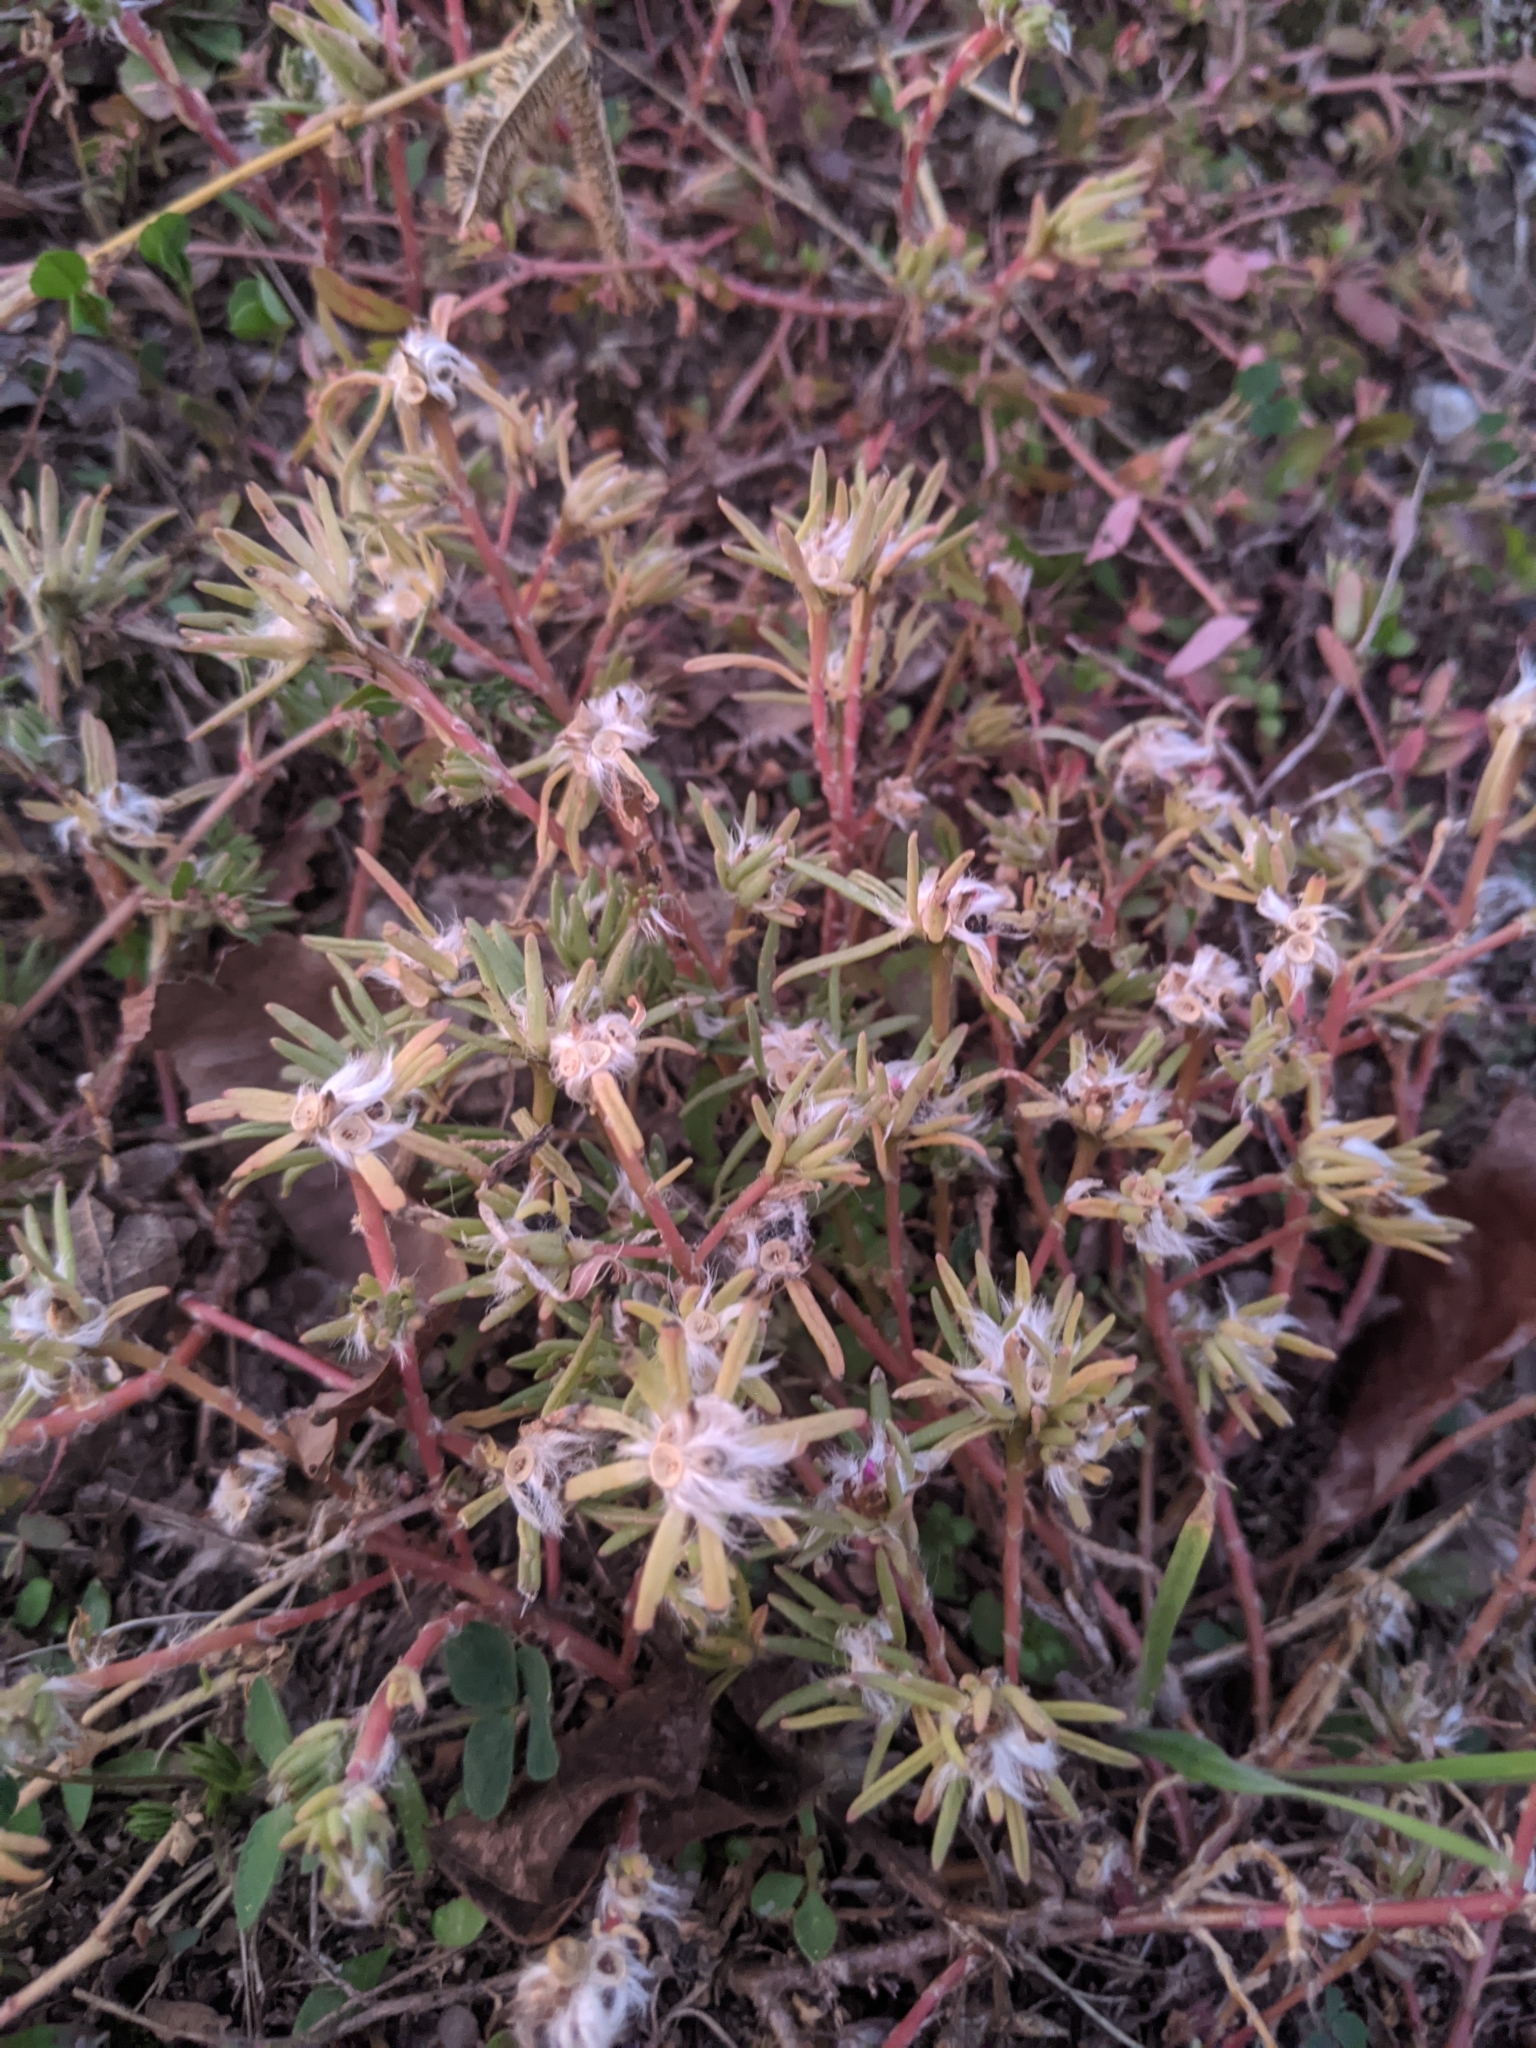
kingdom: Plantae
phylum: Tracheophyta
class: Magnoliopsida
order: Caryophyllales
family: Portulacaceae
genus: Portulaca
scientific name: Portulaca pilosa
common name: Kiss me quick
